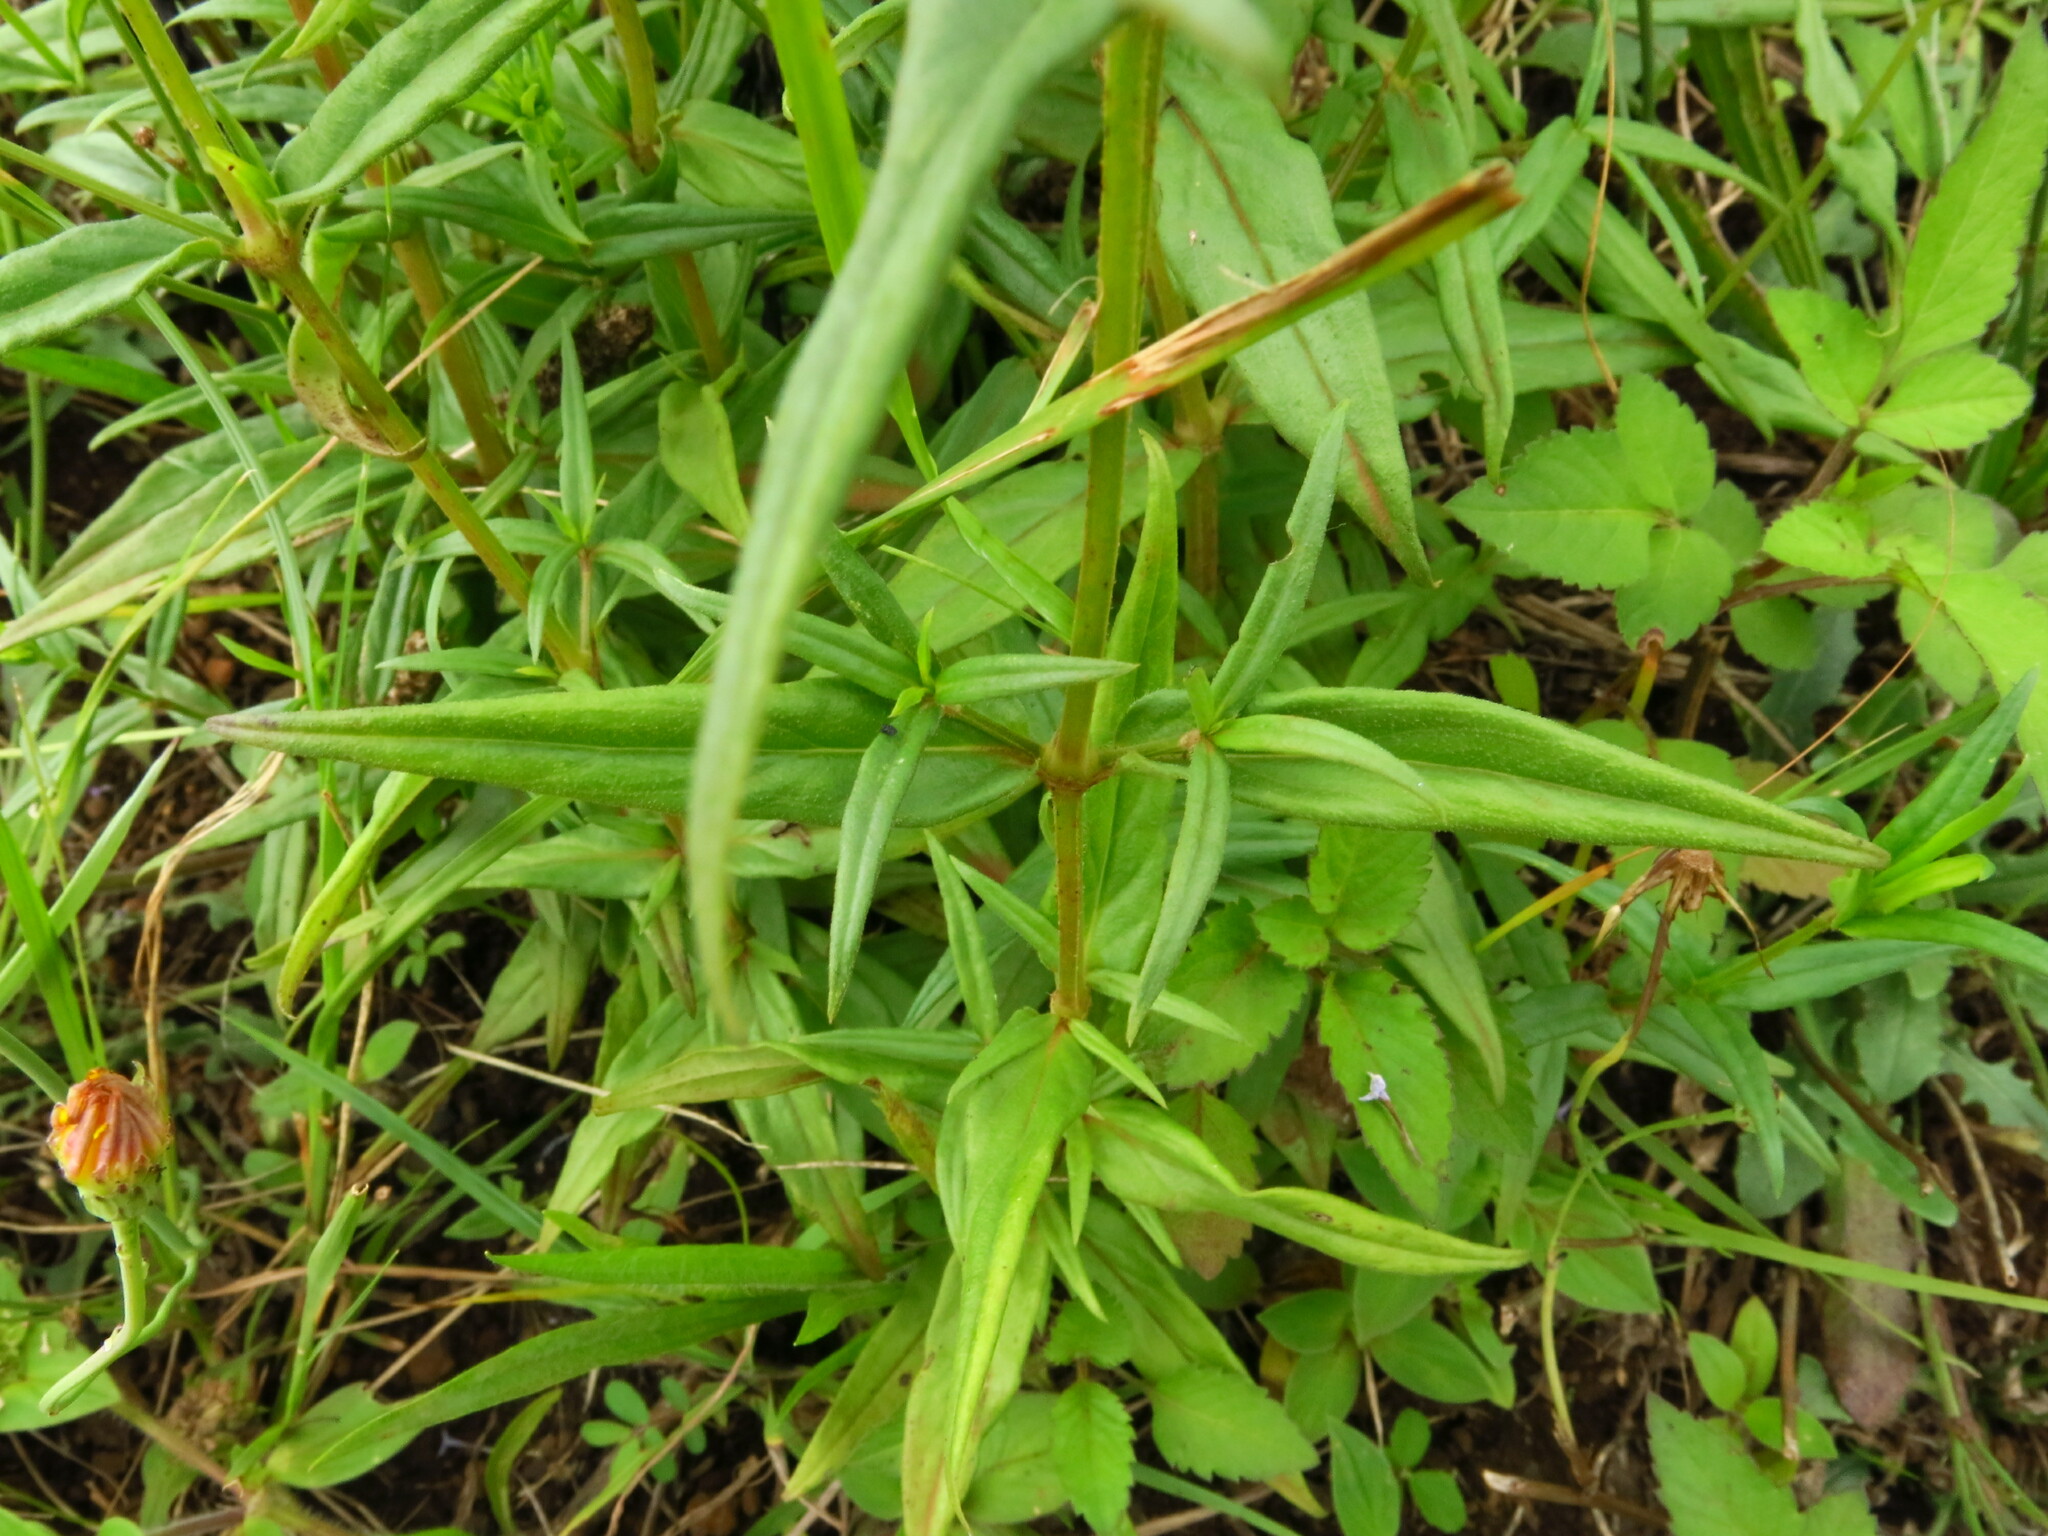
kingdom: Plantae
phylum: Tracheophyta
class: Magnoliopsida
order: Gentianales
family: Rubiaceae
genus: Conostomium
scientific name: Conostomium natalense
